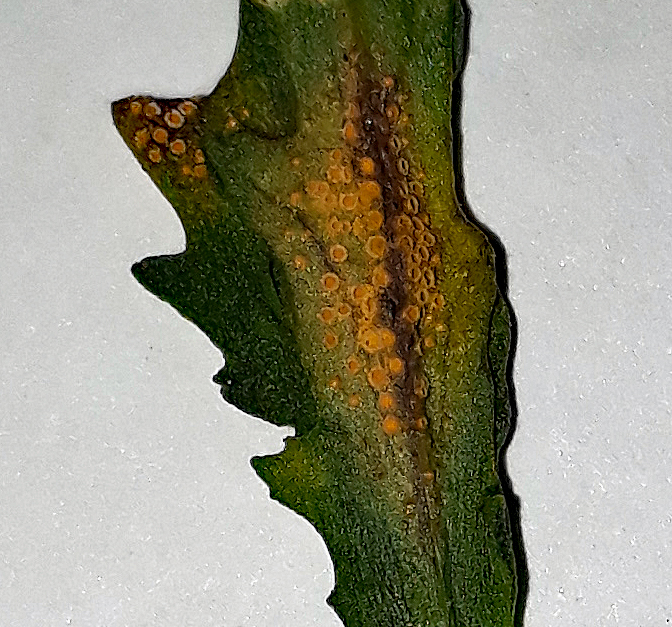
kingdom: Fungi
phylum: Basidiomycota
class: Pucciniomycetes
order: Pucciniales
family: Pucciniaceae
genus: Puccinia
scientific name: Puccinia lagenophorae
